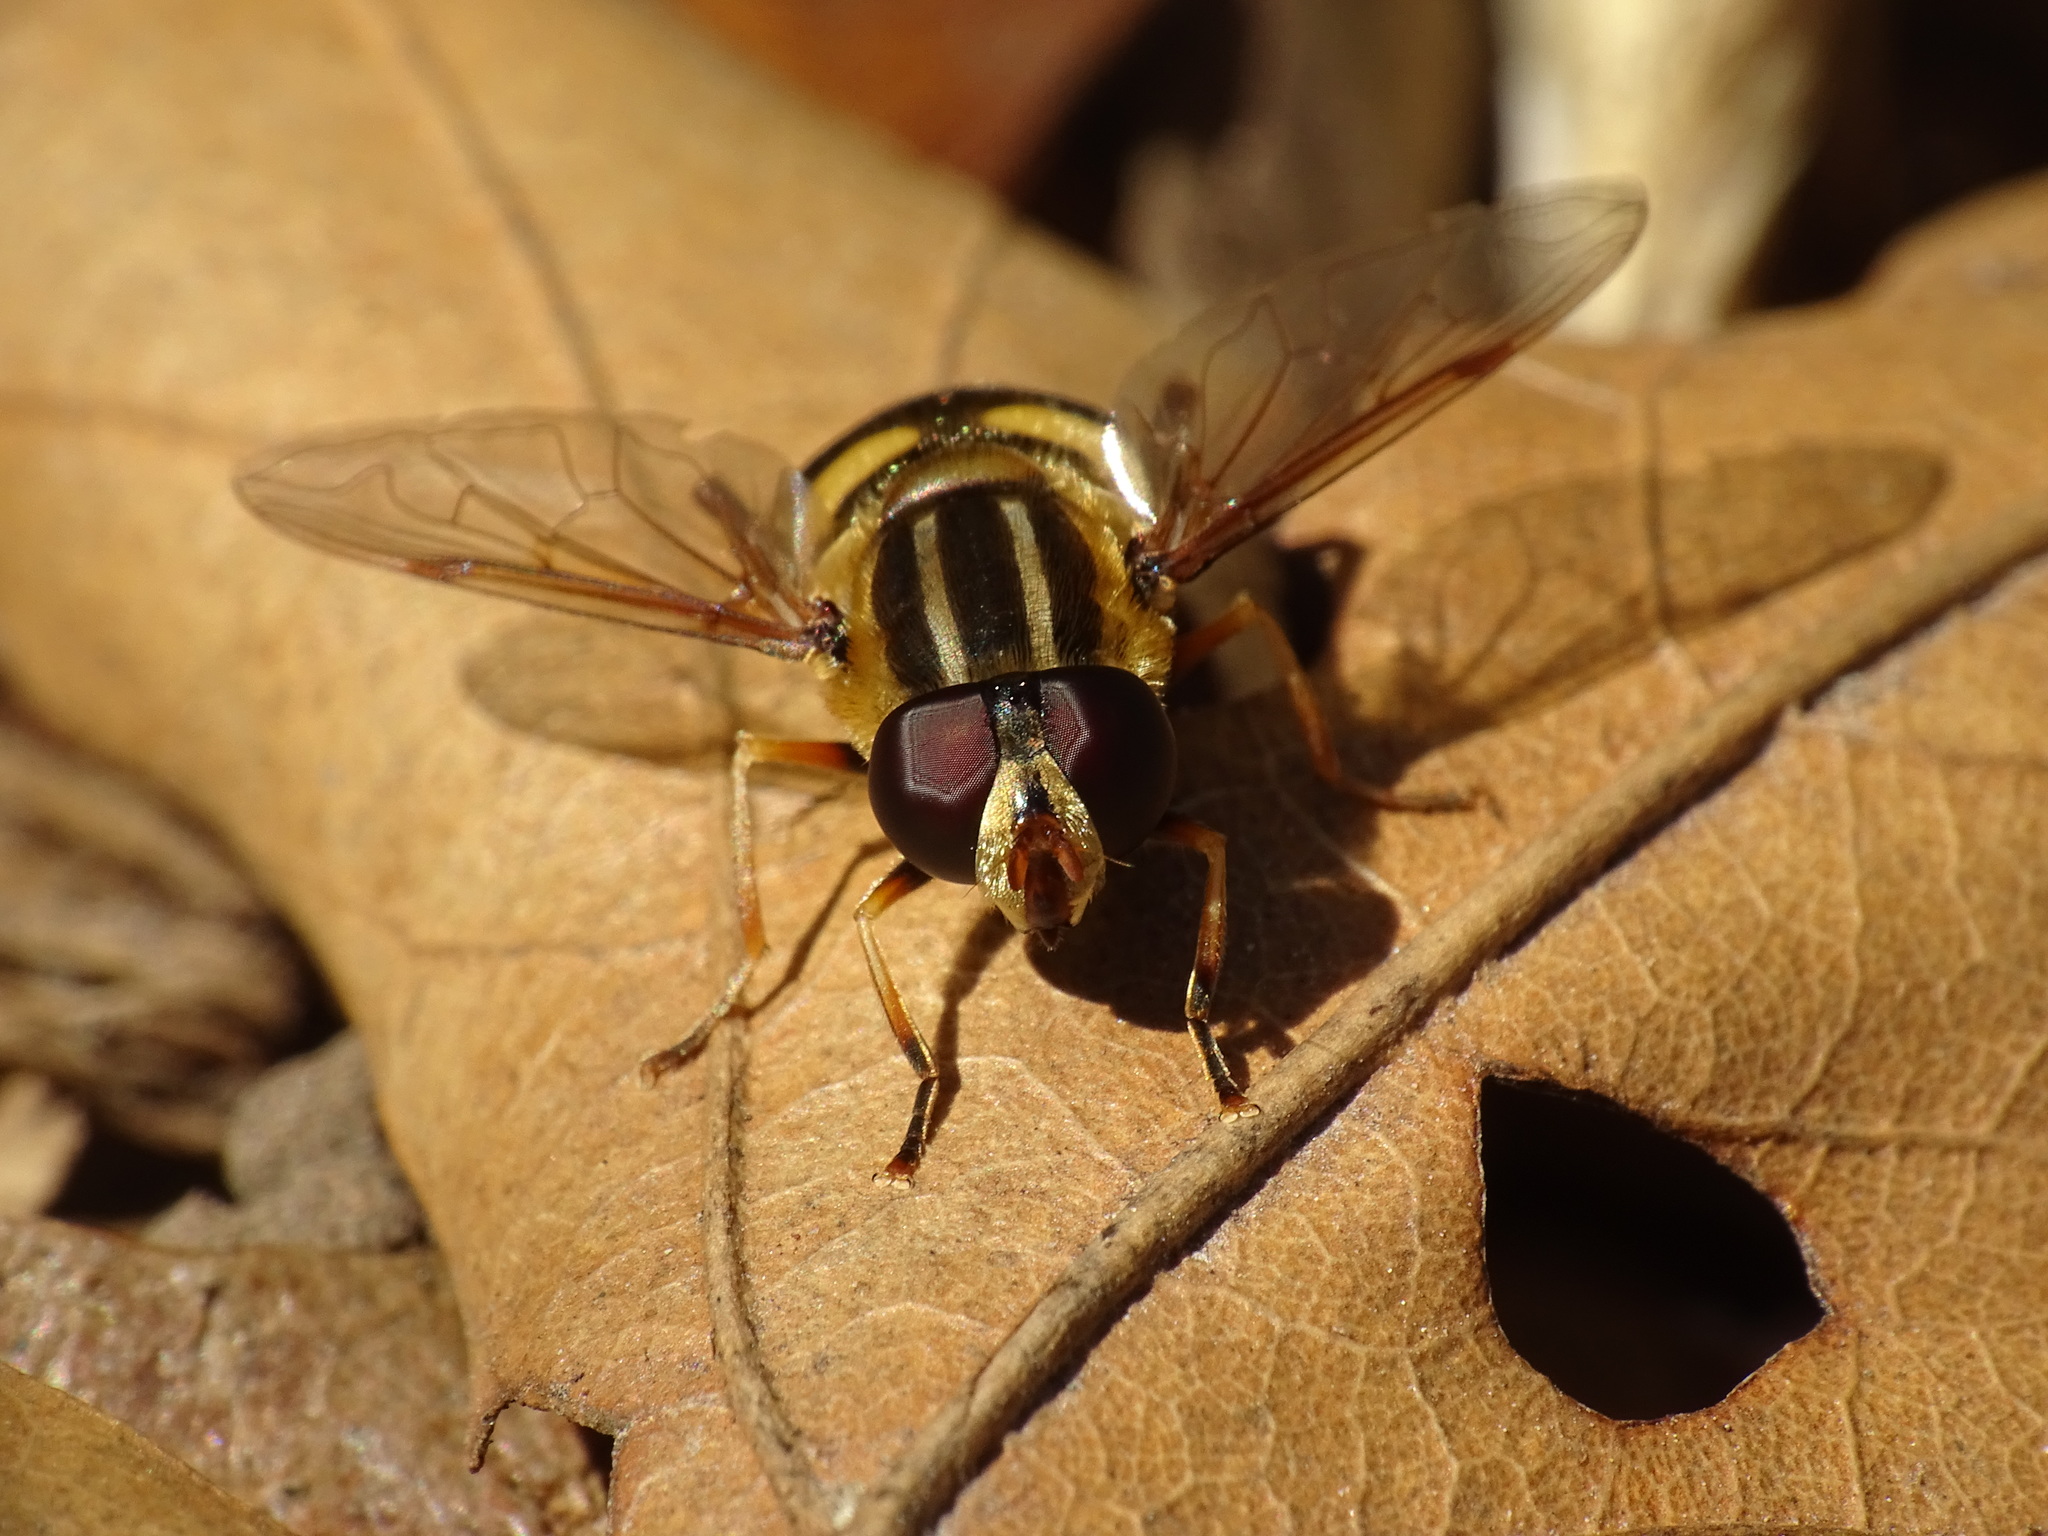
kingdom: Animalia
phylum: Arthropoda
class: Insecta
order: Diptera
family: Syrphidae
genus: Helophilus
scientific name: Helophilus fasciatus
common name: Narrow-headed marsh fly
